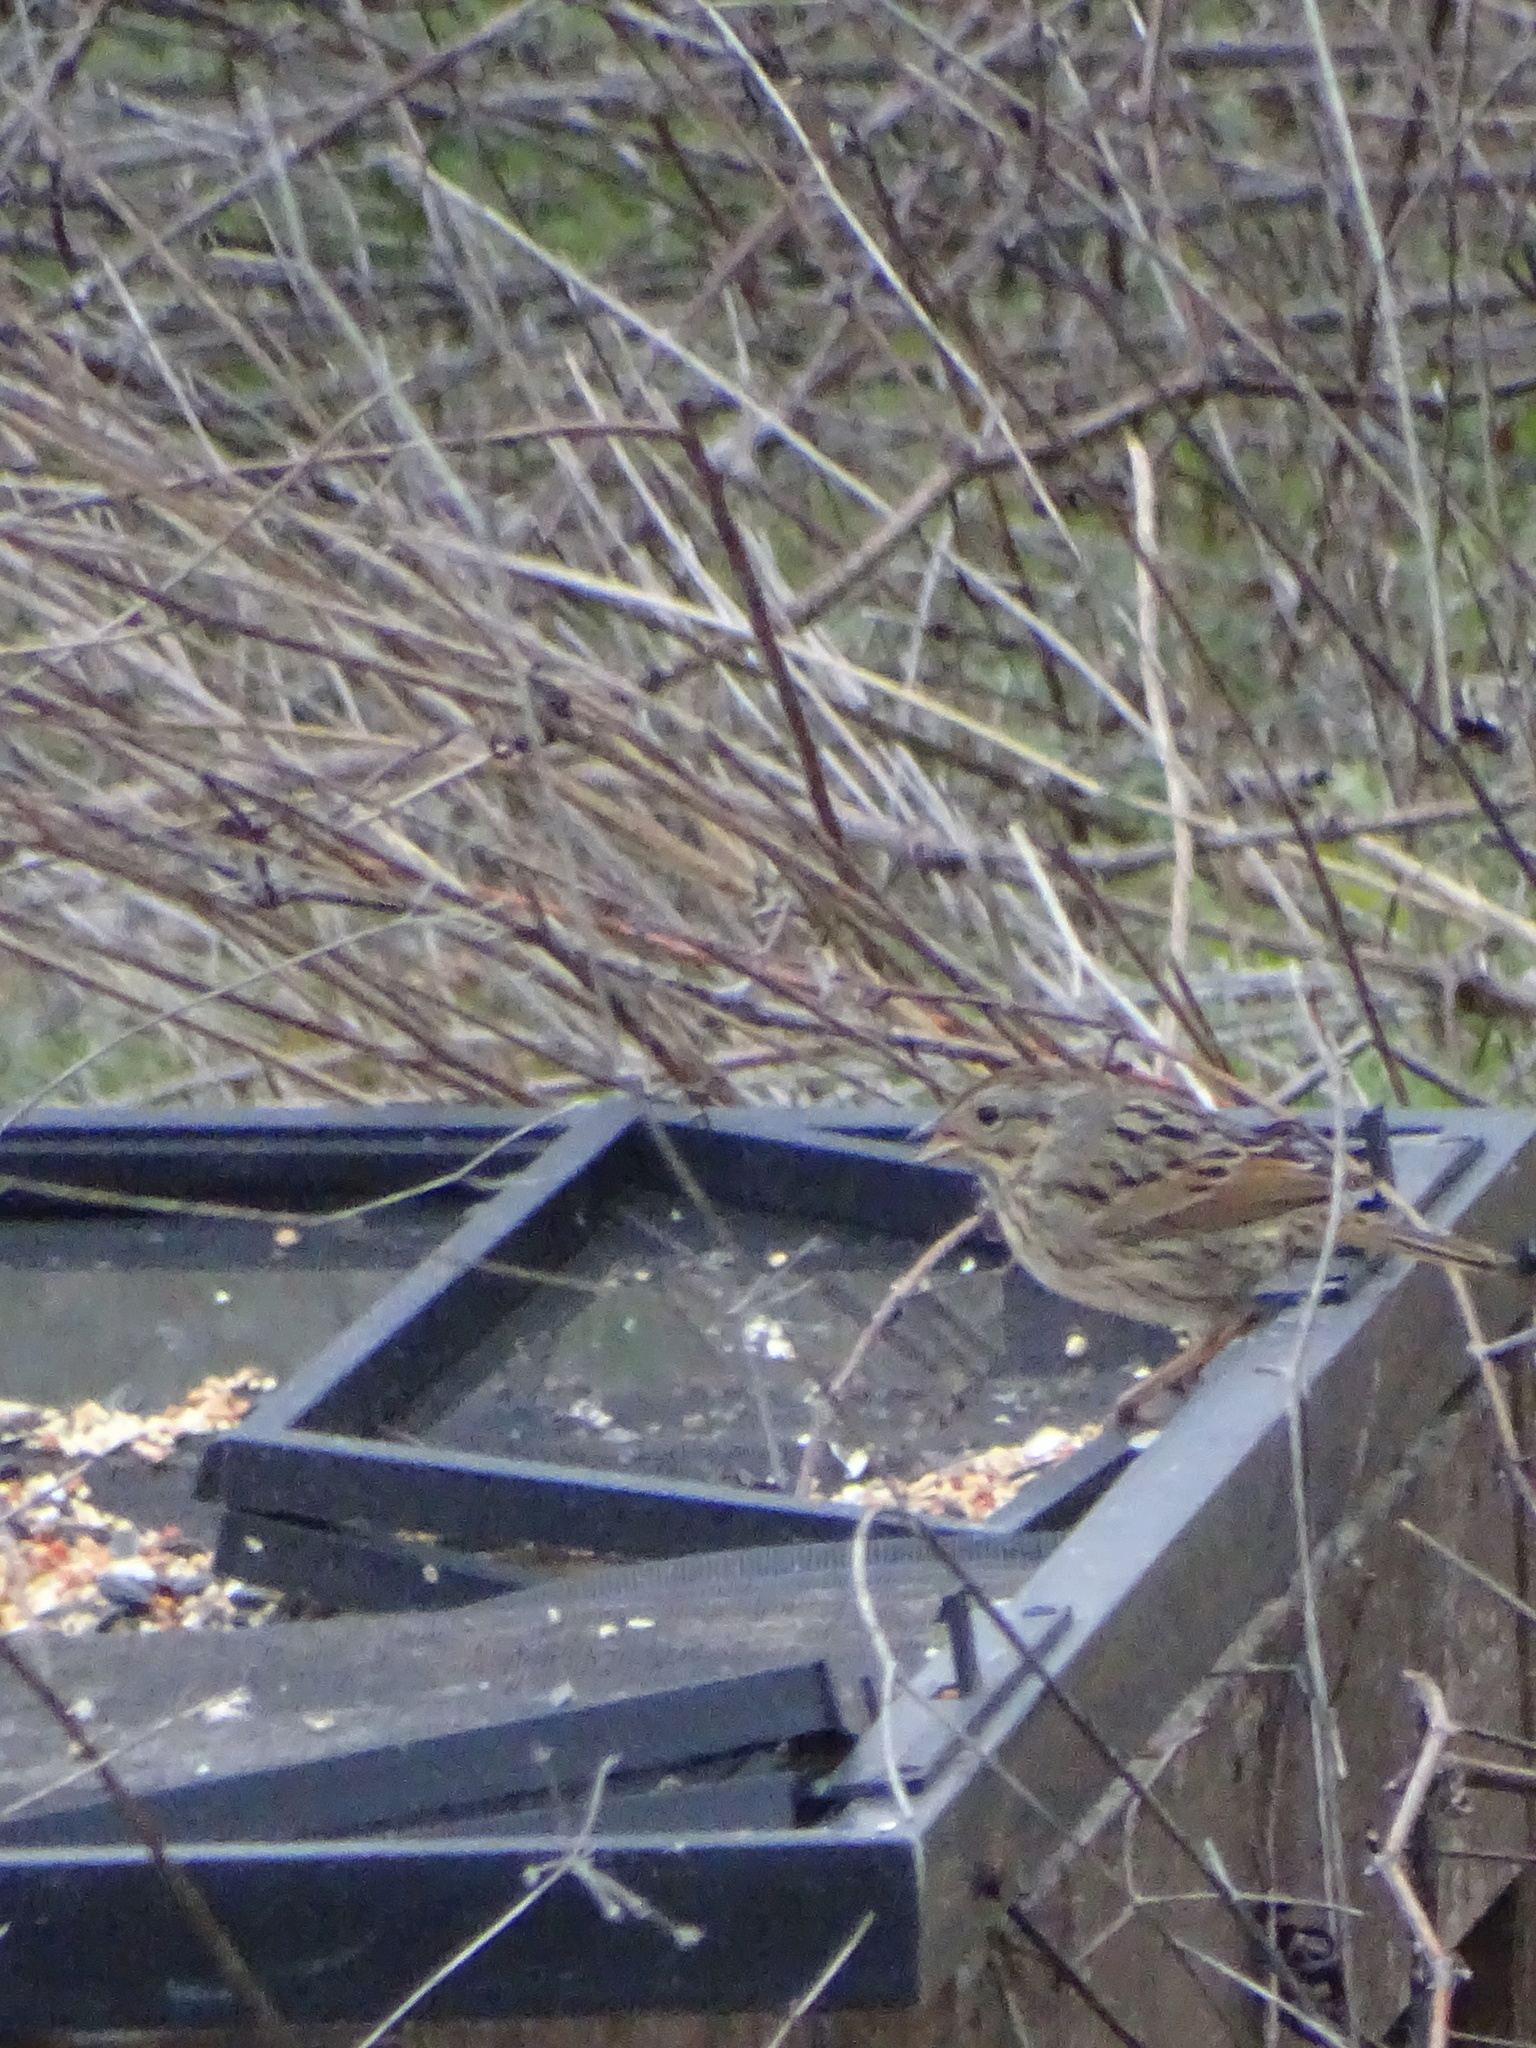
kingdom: Animalia
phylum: Chordata
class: Aves
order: Passeriformes
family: Passerellidae
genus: Melospiza
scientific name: Melospiza lincolnii
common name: Lincoln's sparrow
